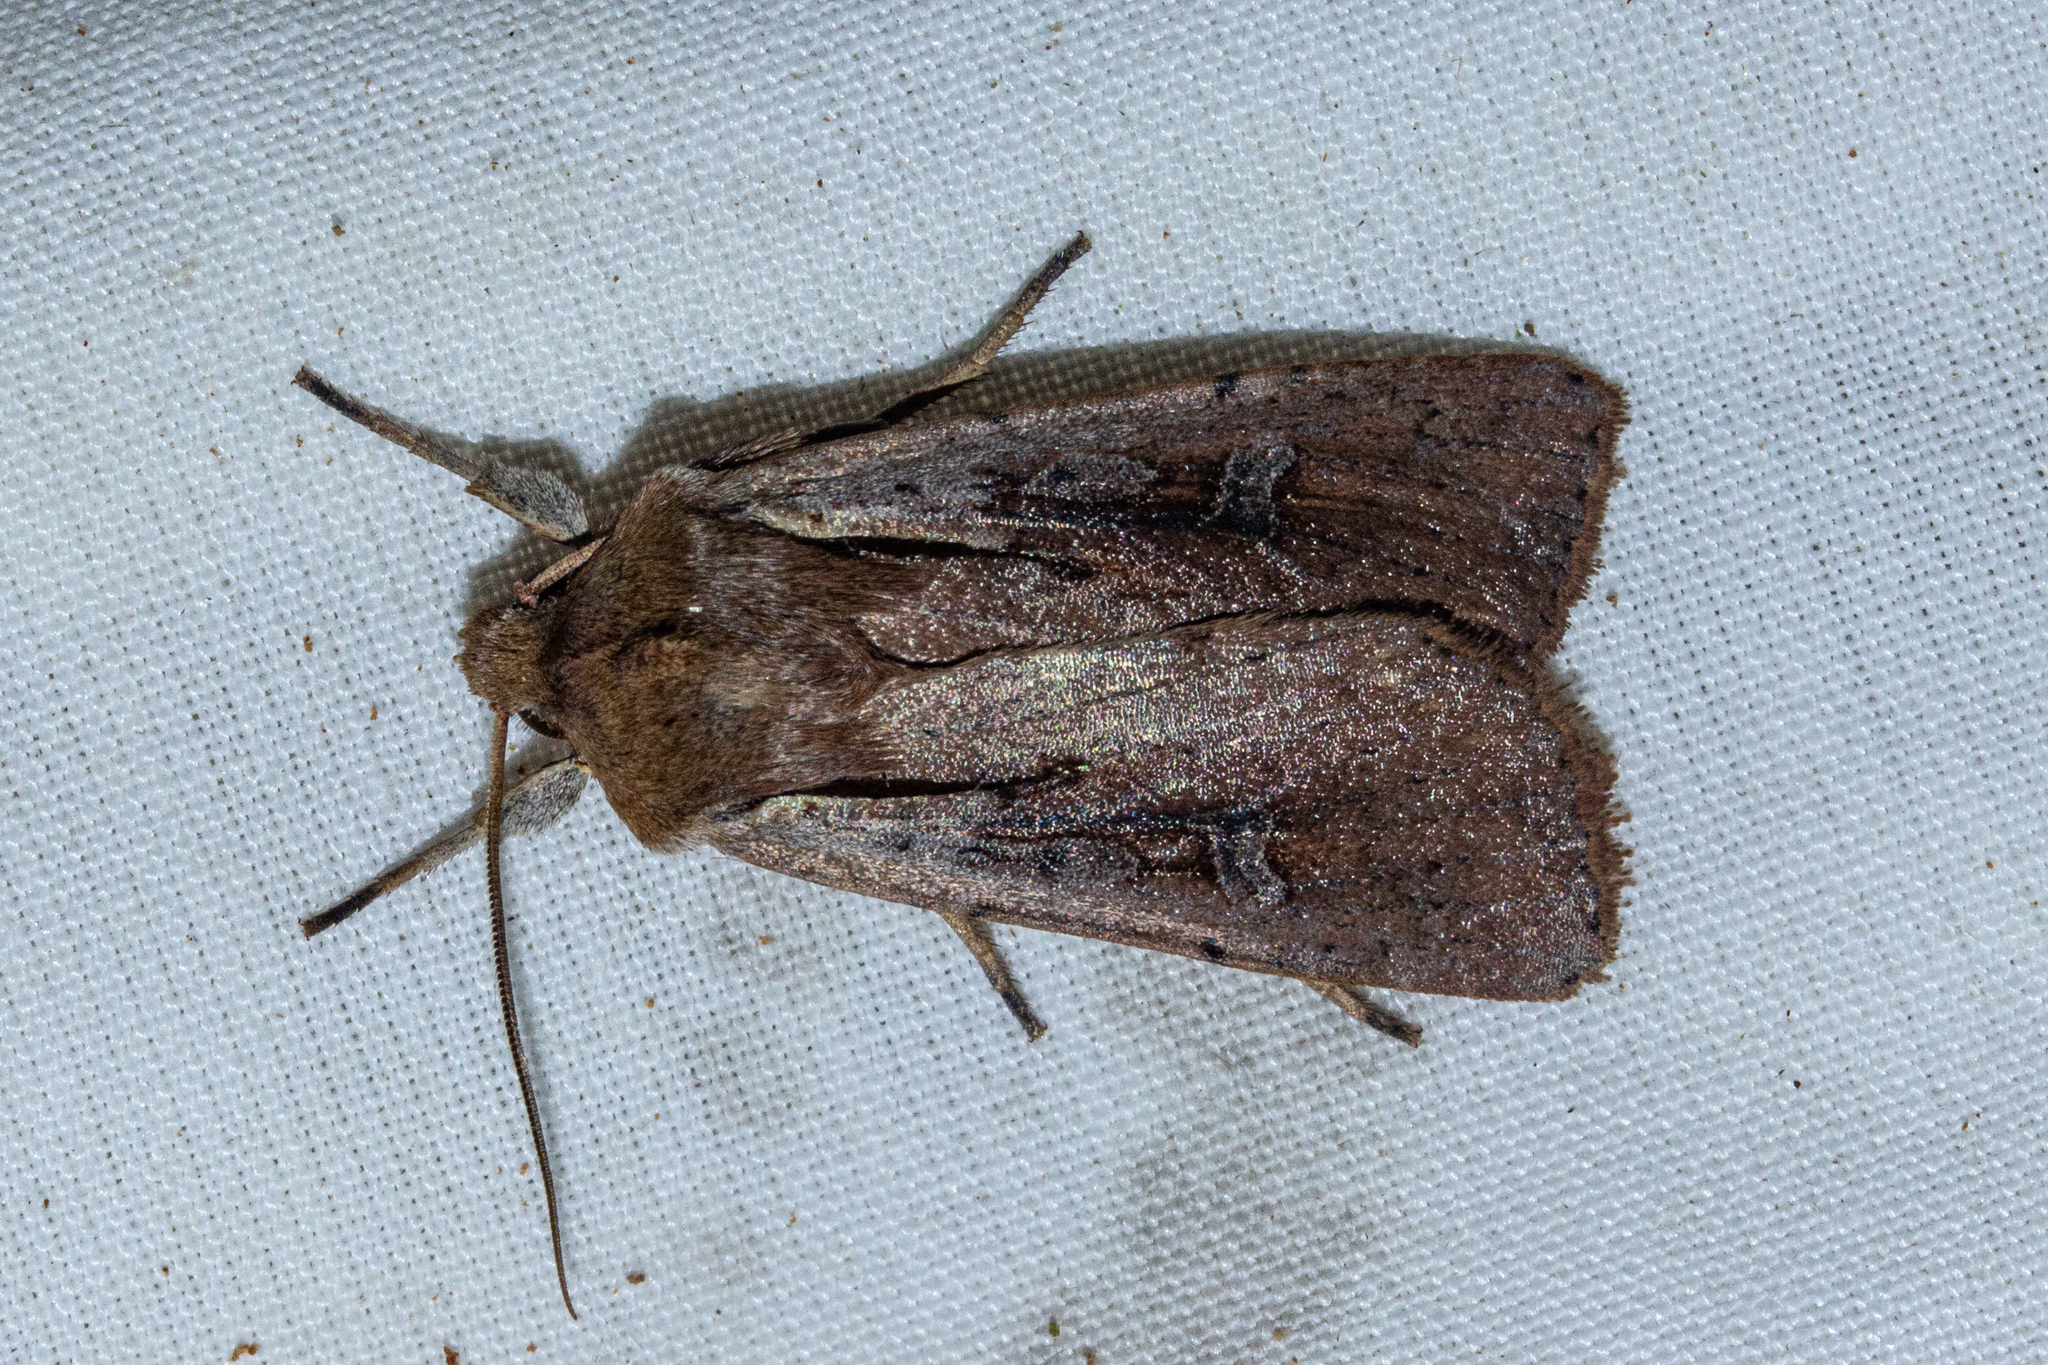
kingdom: Animalia
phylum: Arthropoda
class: Insecta
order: Lepidoptera
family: Noctuidae
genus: Ichneutica
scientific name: Ichneutica atristriga
